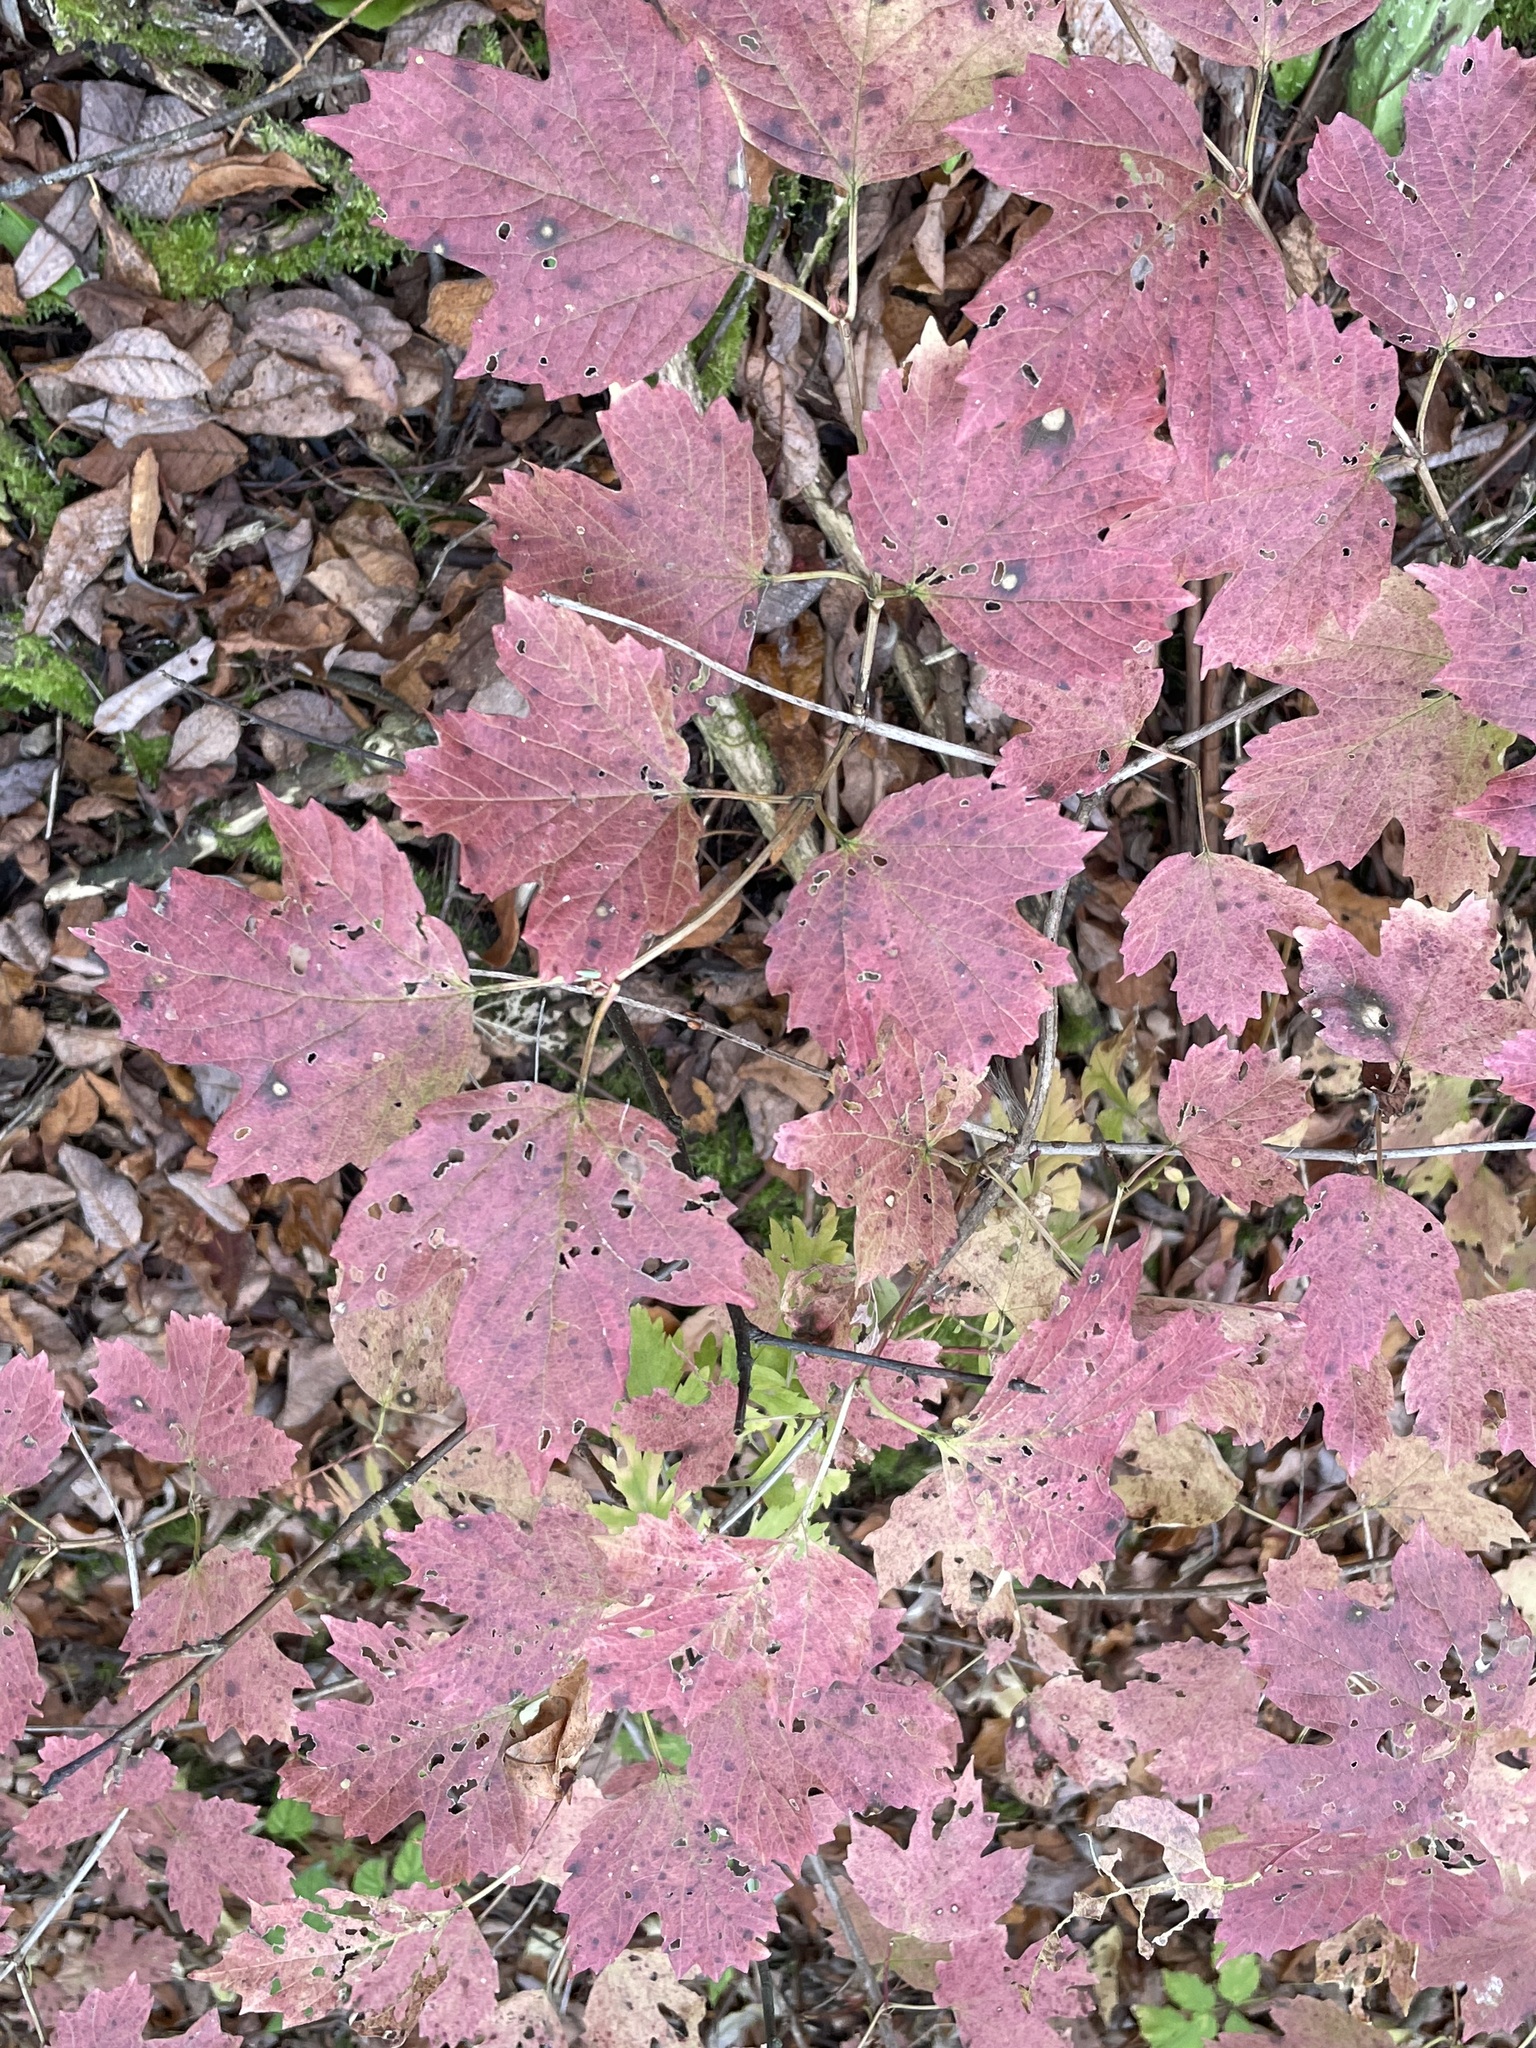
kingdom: Plantae
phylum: Tracheophyta
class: Magnoliopsida
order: Dipsacales
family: Viburnaceae
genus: Viburnum
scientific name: Viburnum opulus
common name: Guelder-rose
